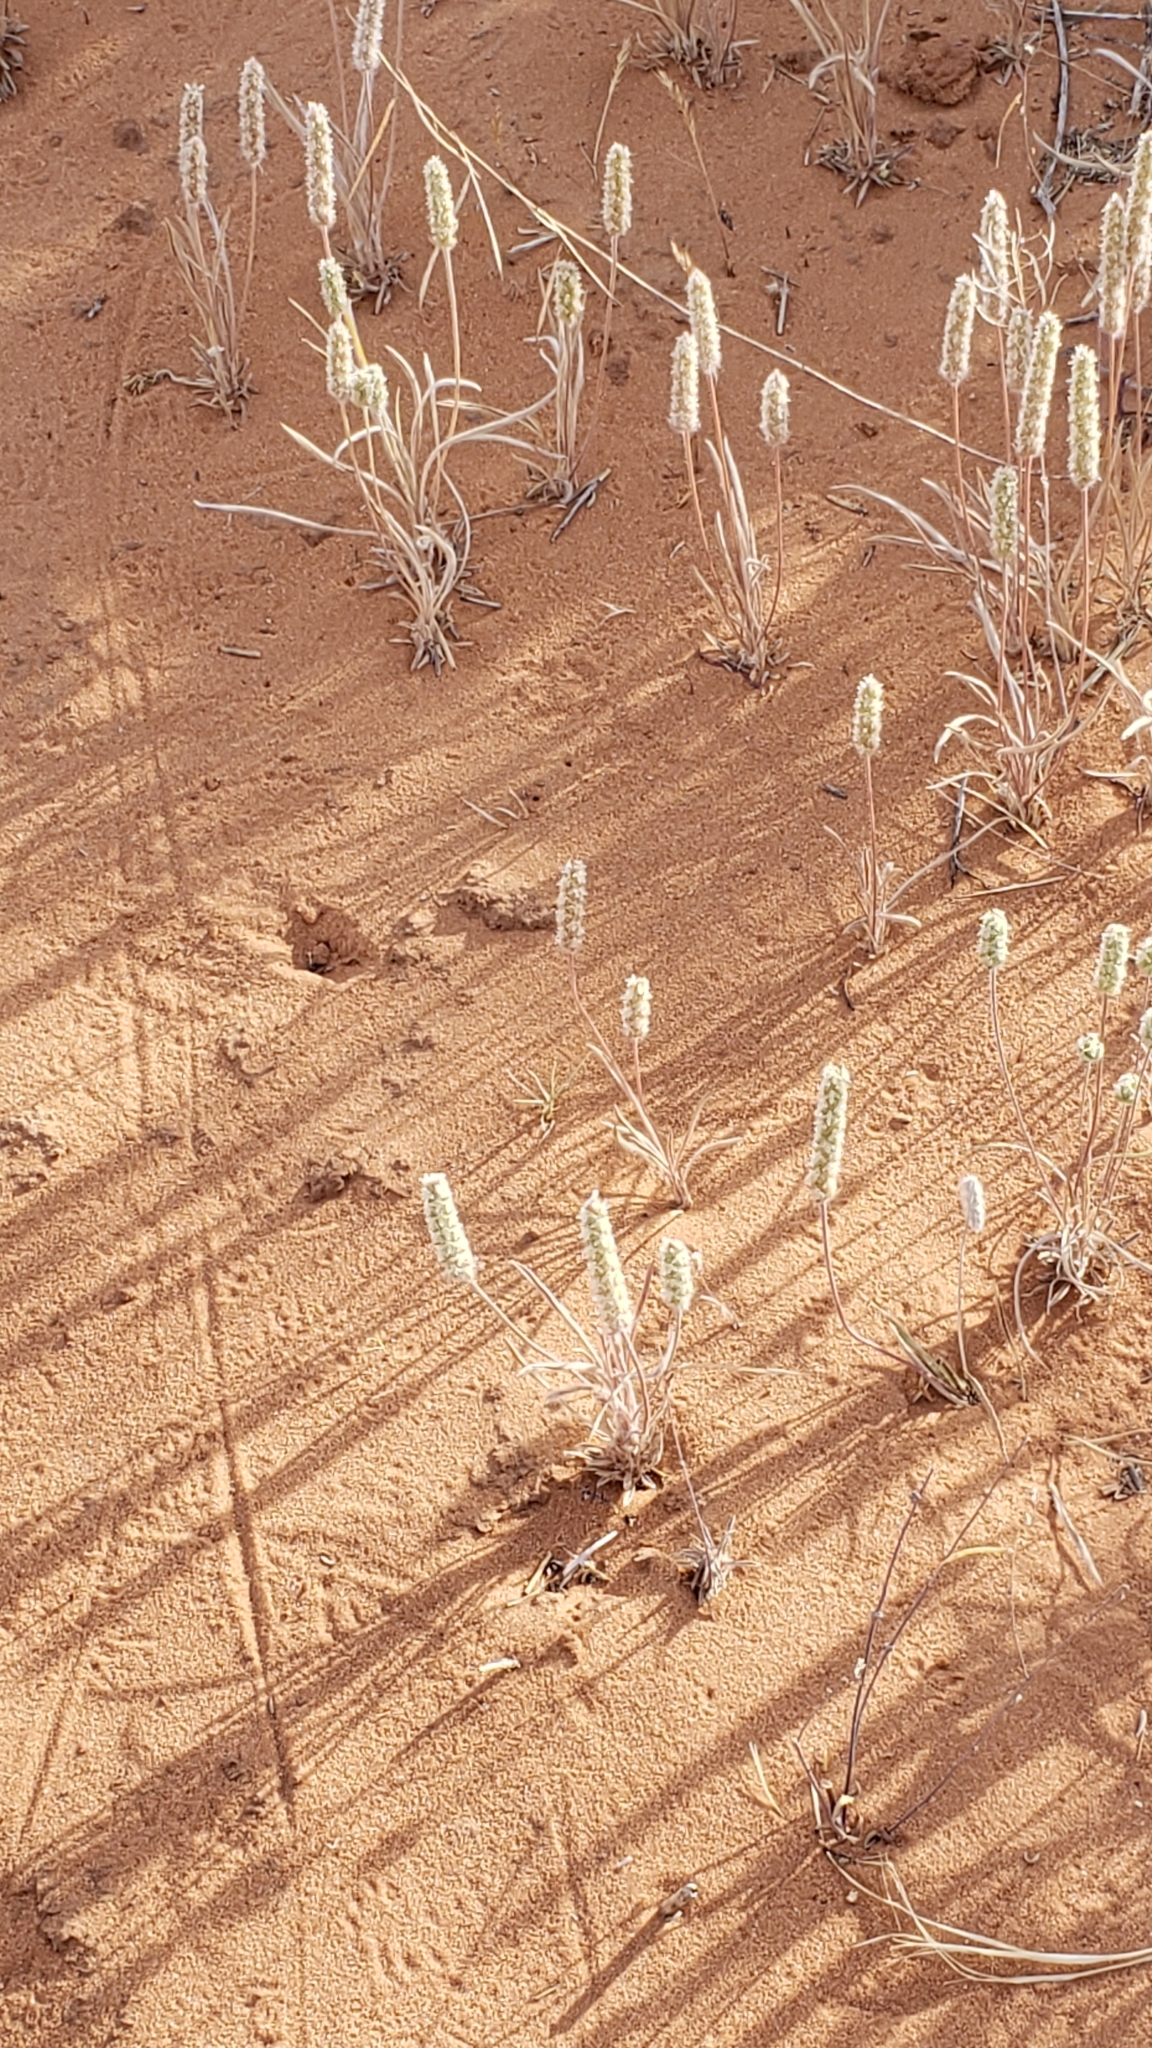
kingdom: Plantae
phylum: Tracheophyta
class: Magnoliopsida
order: Lamiales
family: Plantaginaceae
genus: Plantago
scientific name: Plantago patagonica
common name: Patagonia indian-wheat
